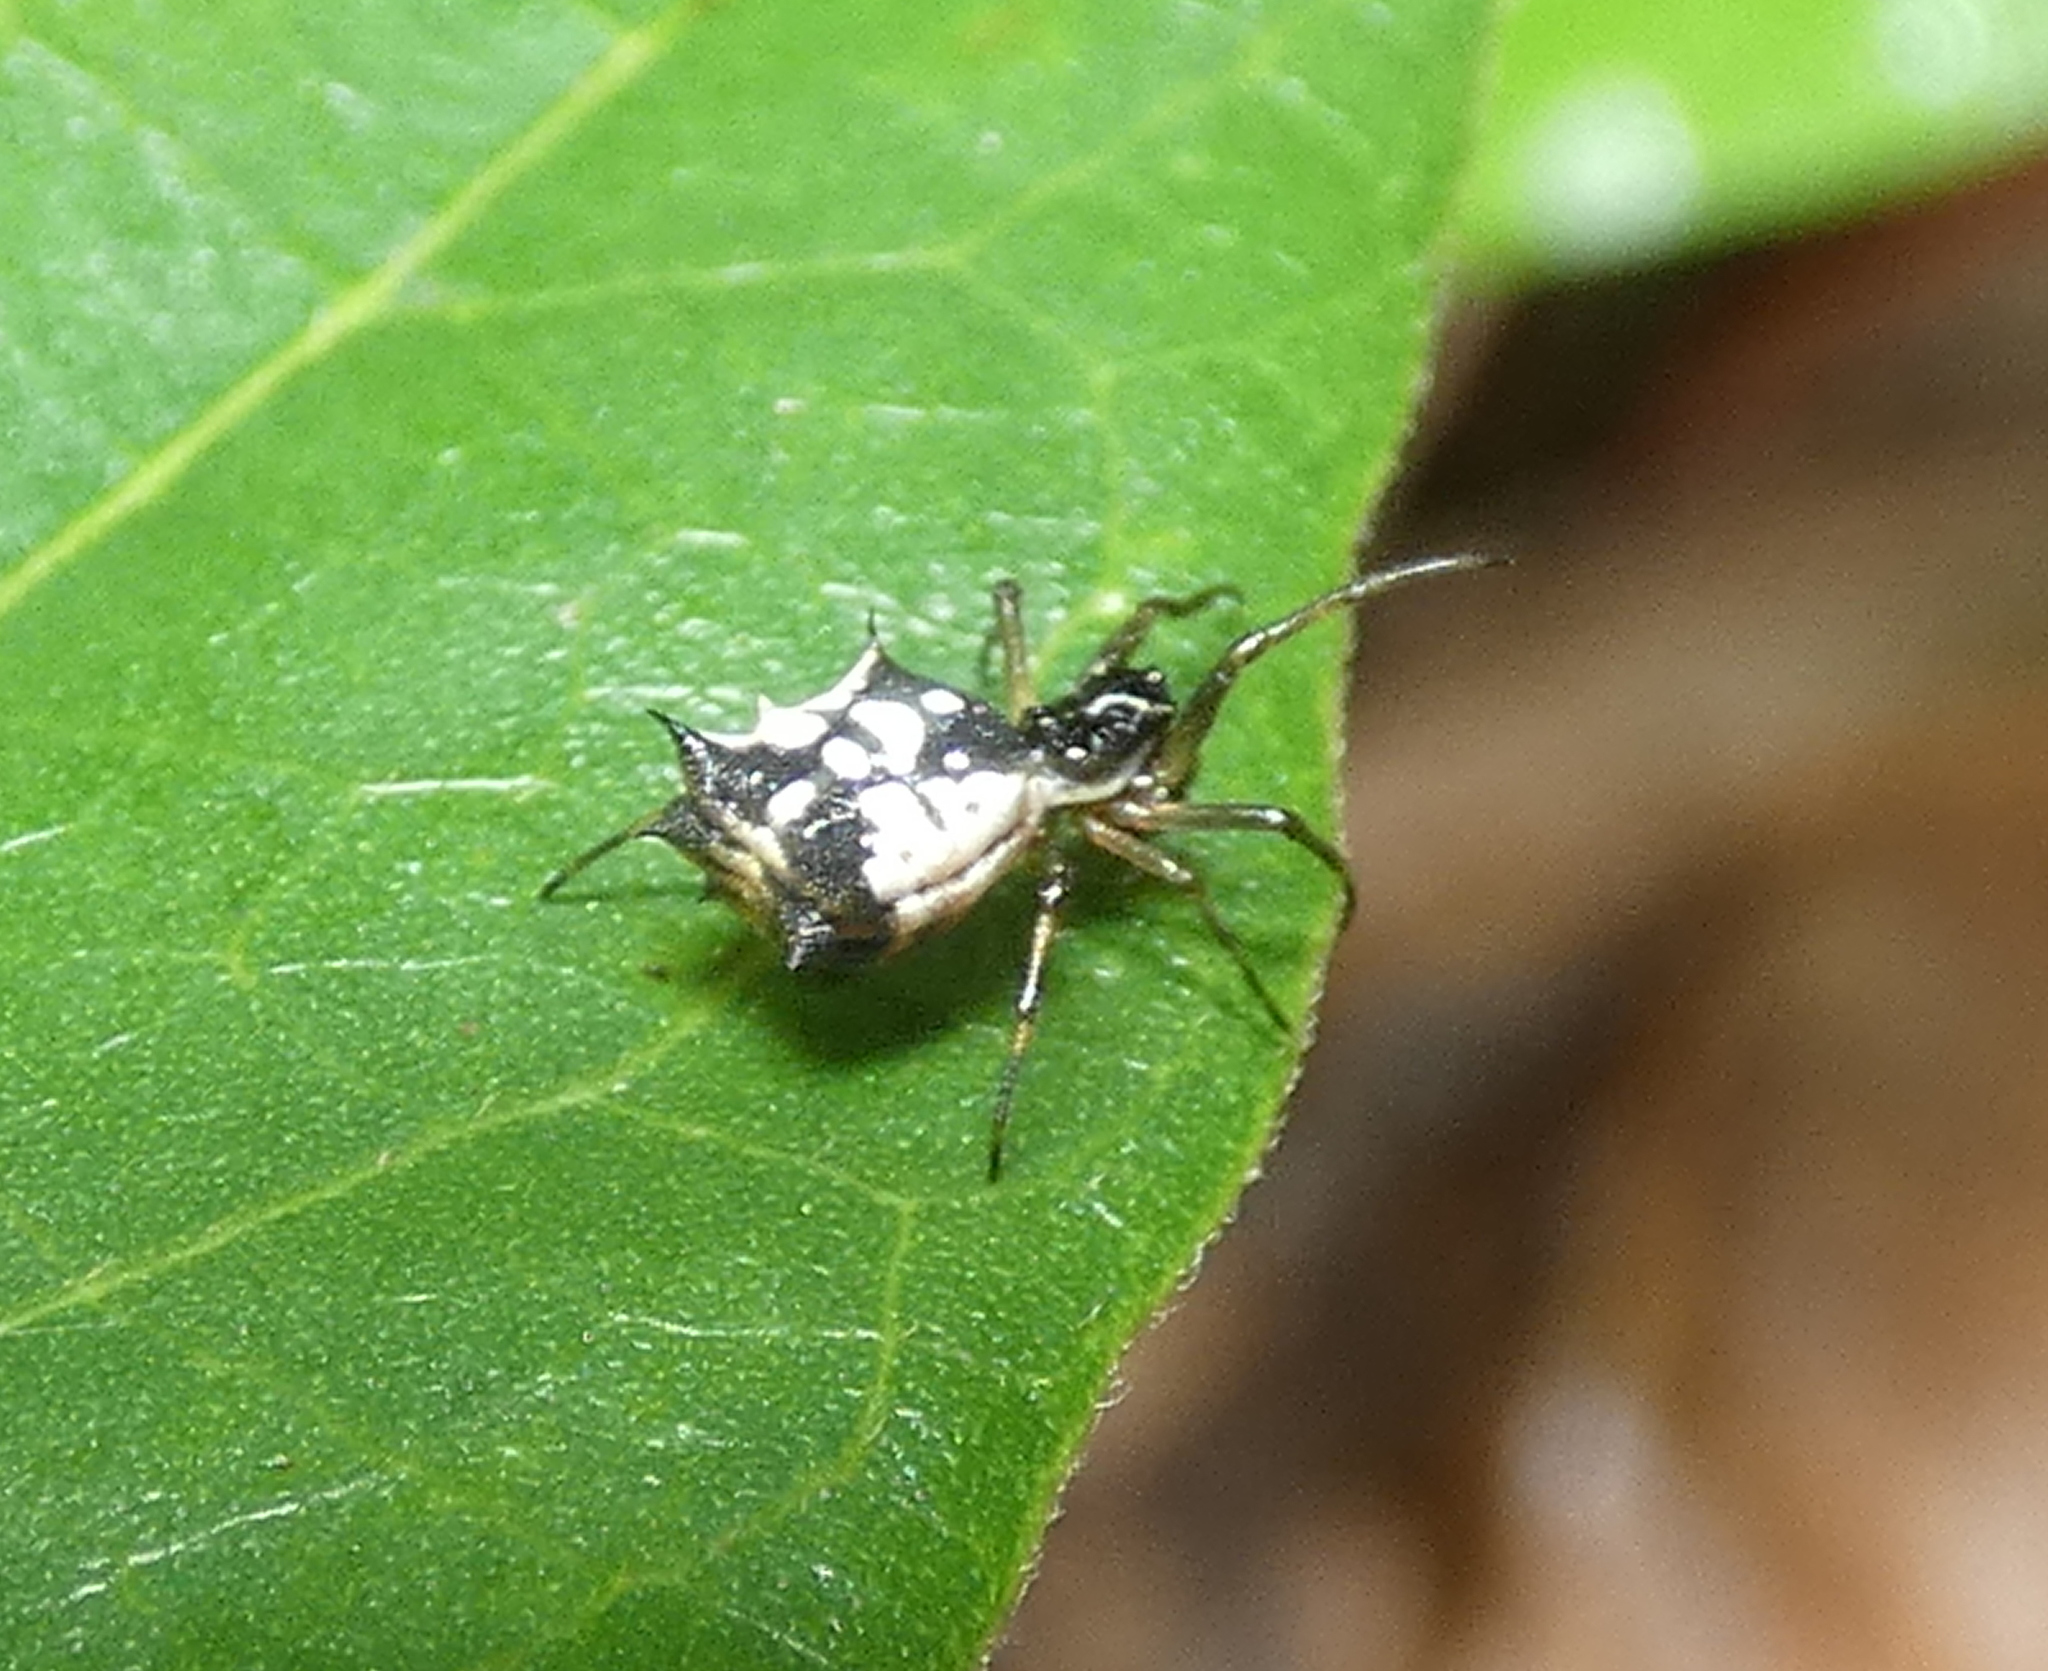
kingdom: Animalia
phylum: Arthropoda
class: Arachnida
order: Araneae
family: Araneidae
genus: Micrathena
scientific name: Micrathena picta
